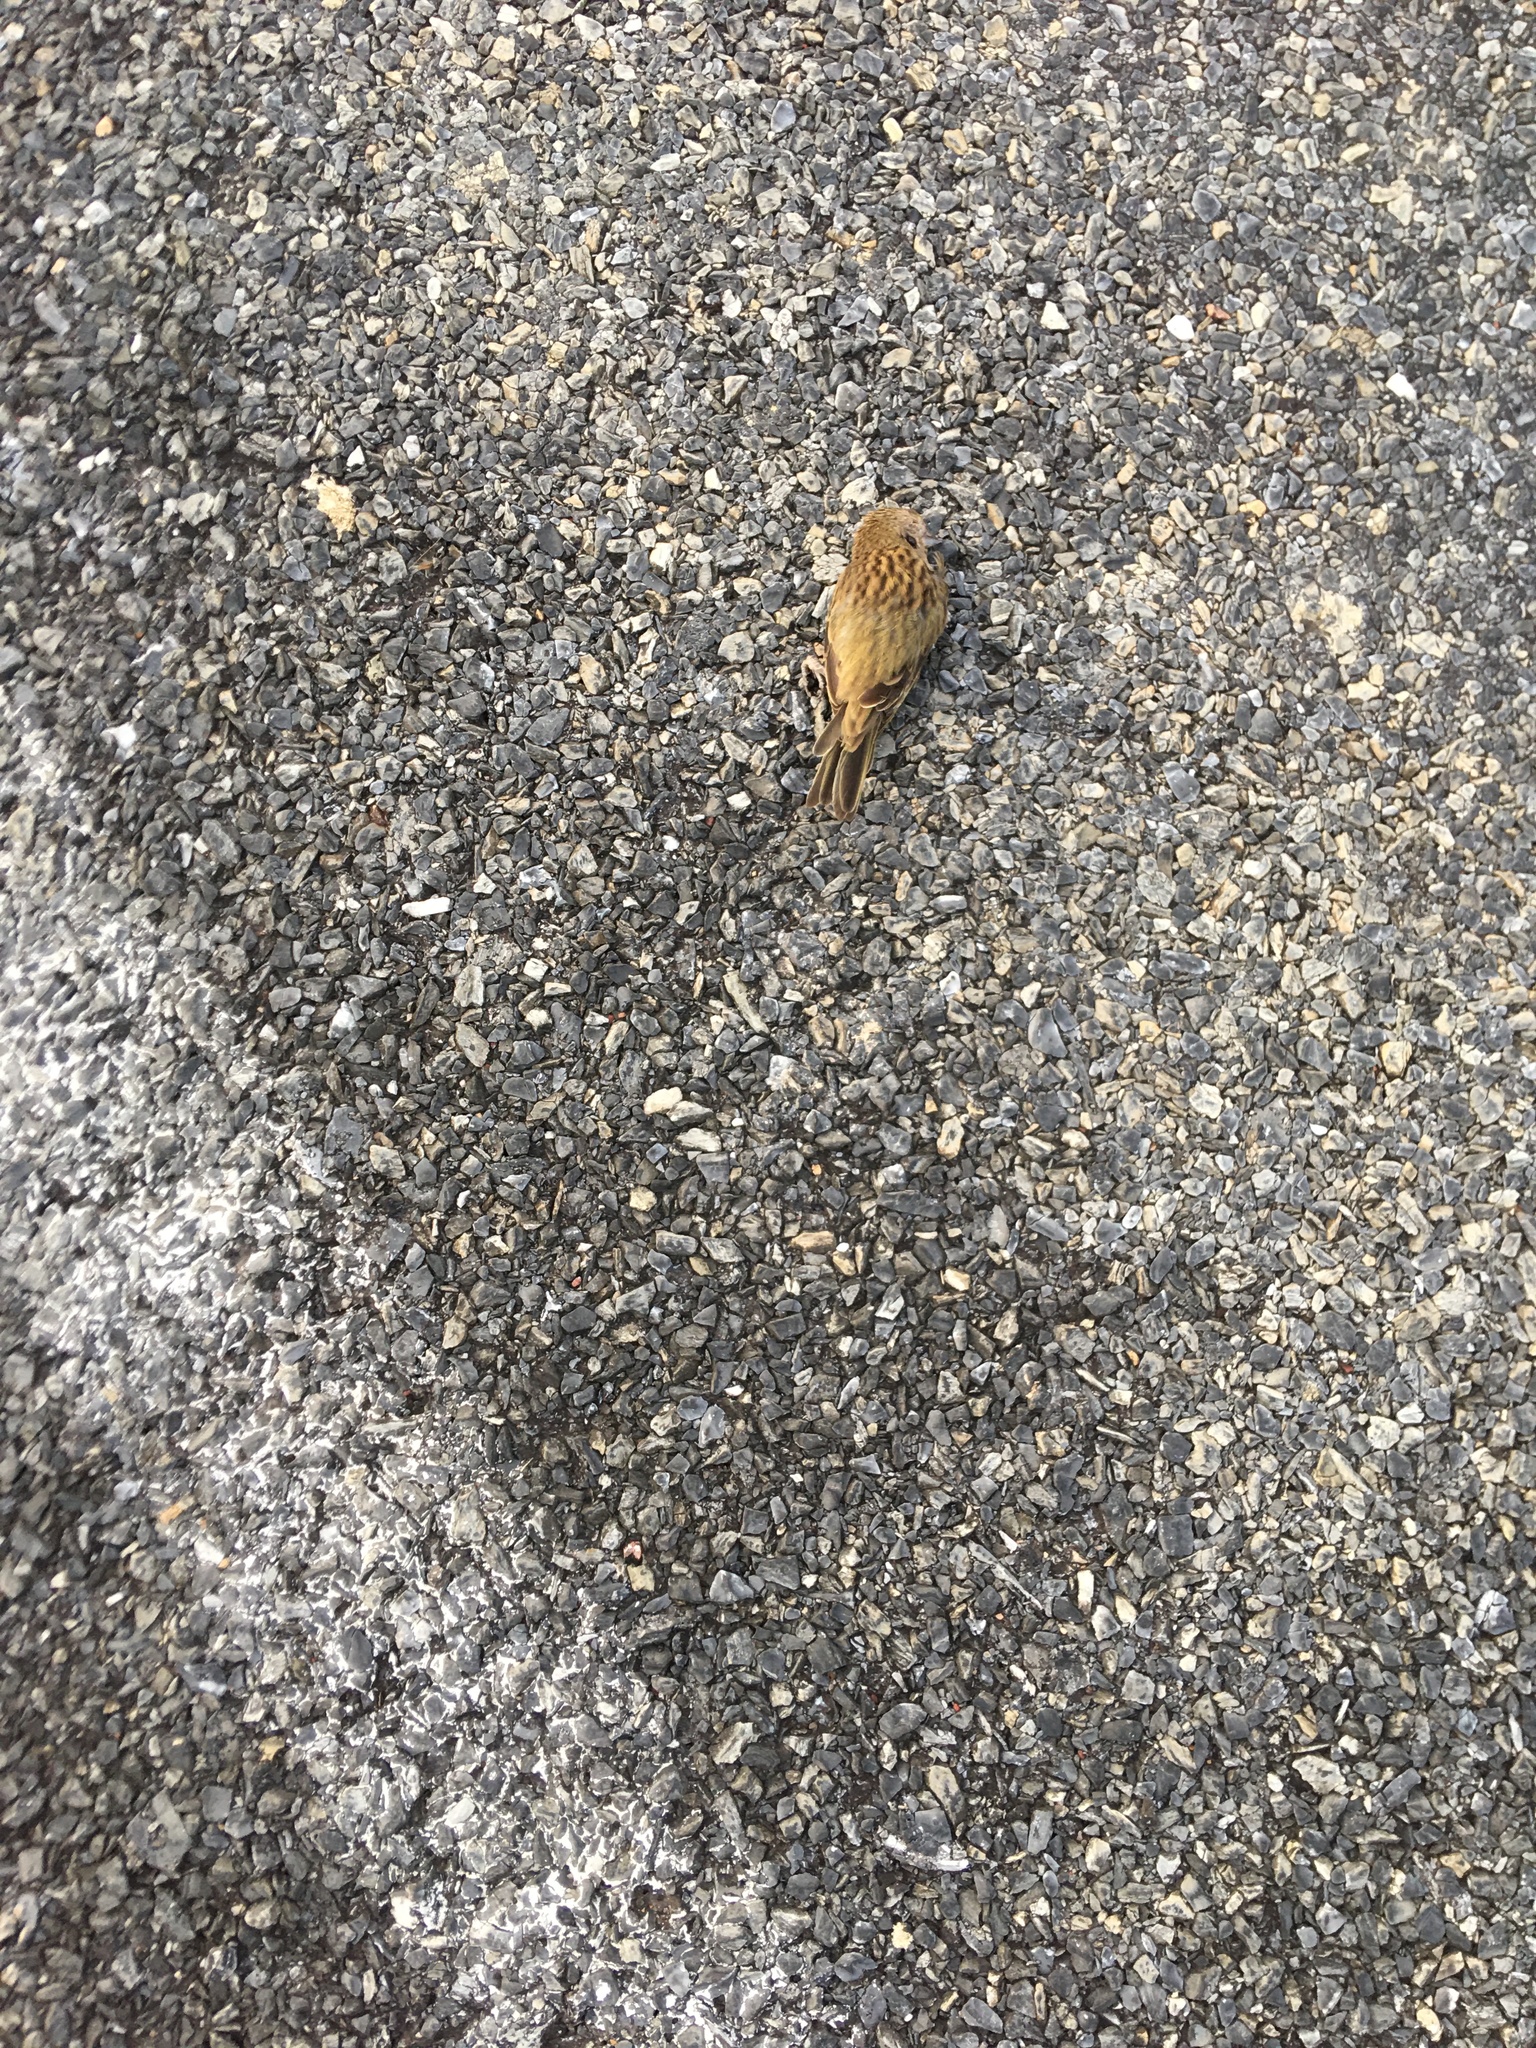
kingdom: Animalia
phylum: Chordata
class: Aves
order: Passeriformes
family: Thraupidae
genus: Sicalis
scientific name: Sicalis flaveola
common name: Saffron finch
